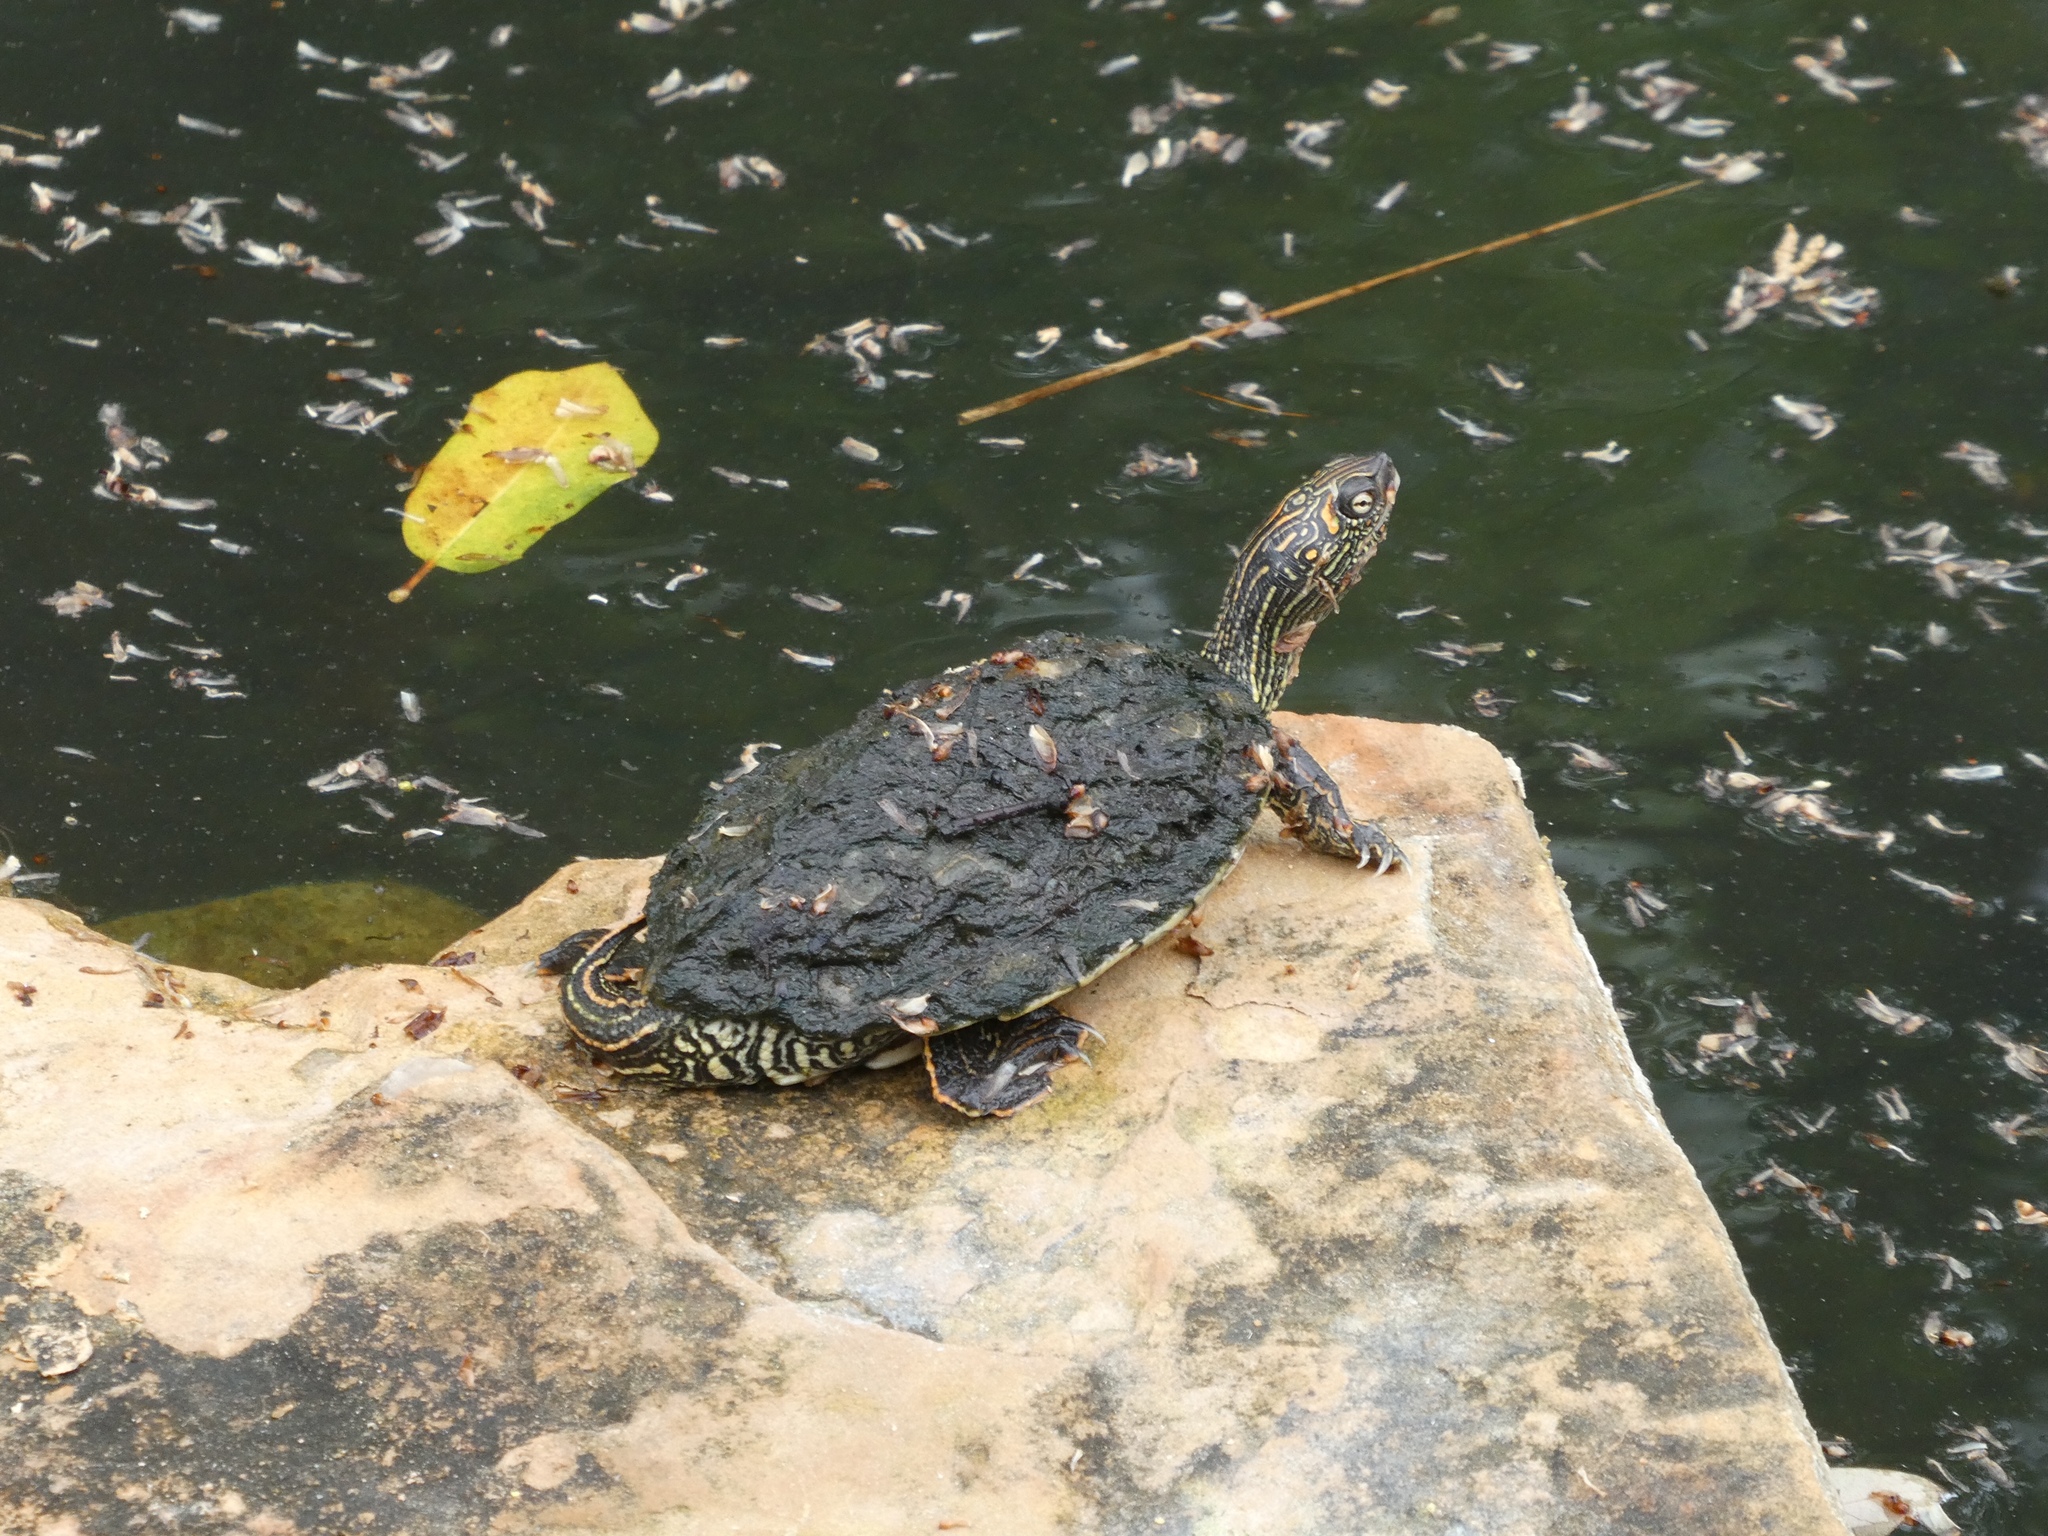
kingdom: Animalia
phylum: Chordata
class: Testudines
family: Emydidae
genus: Graptemys
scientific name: Graptemys versa
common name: Texas map turtle
